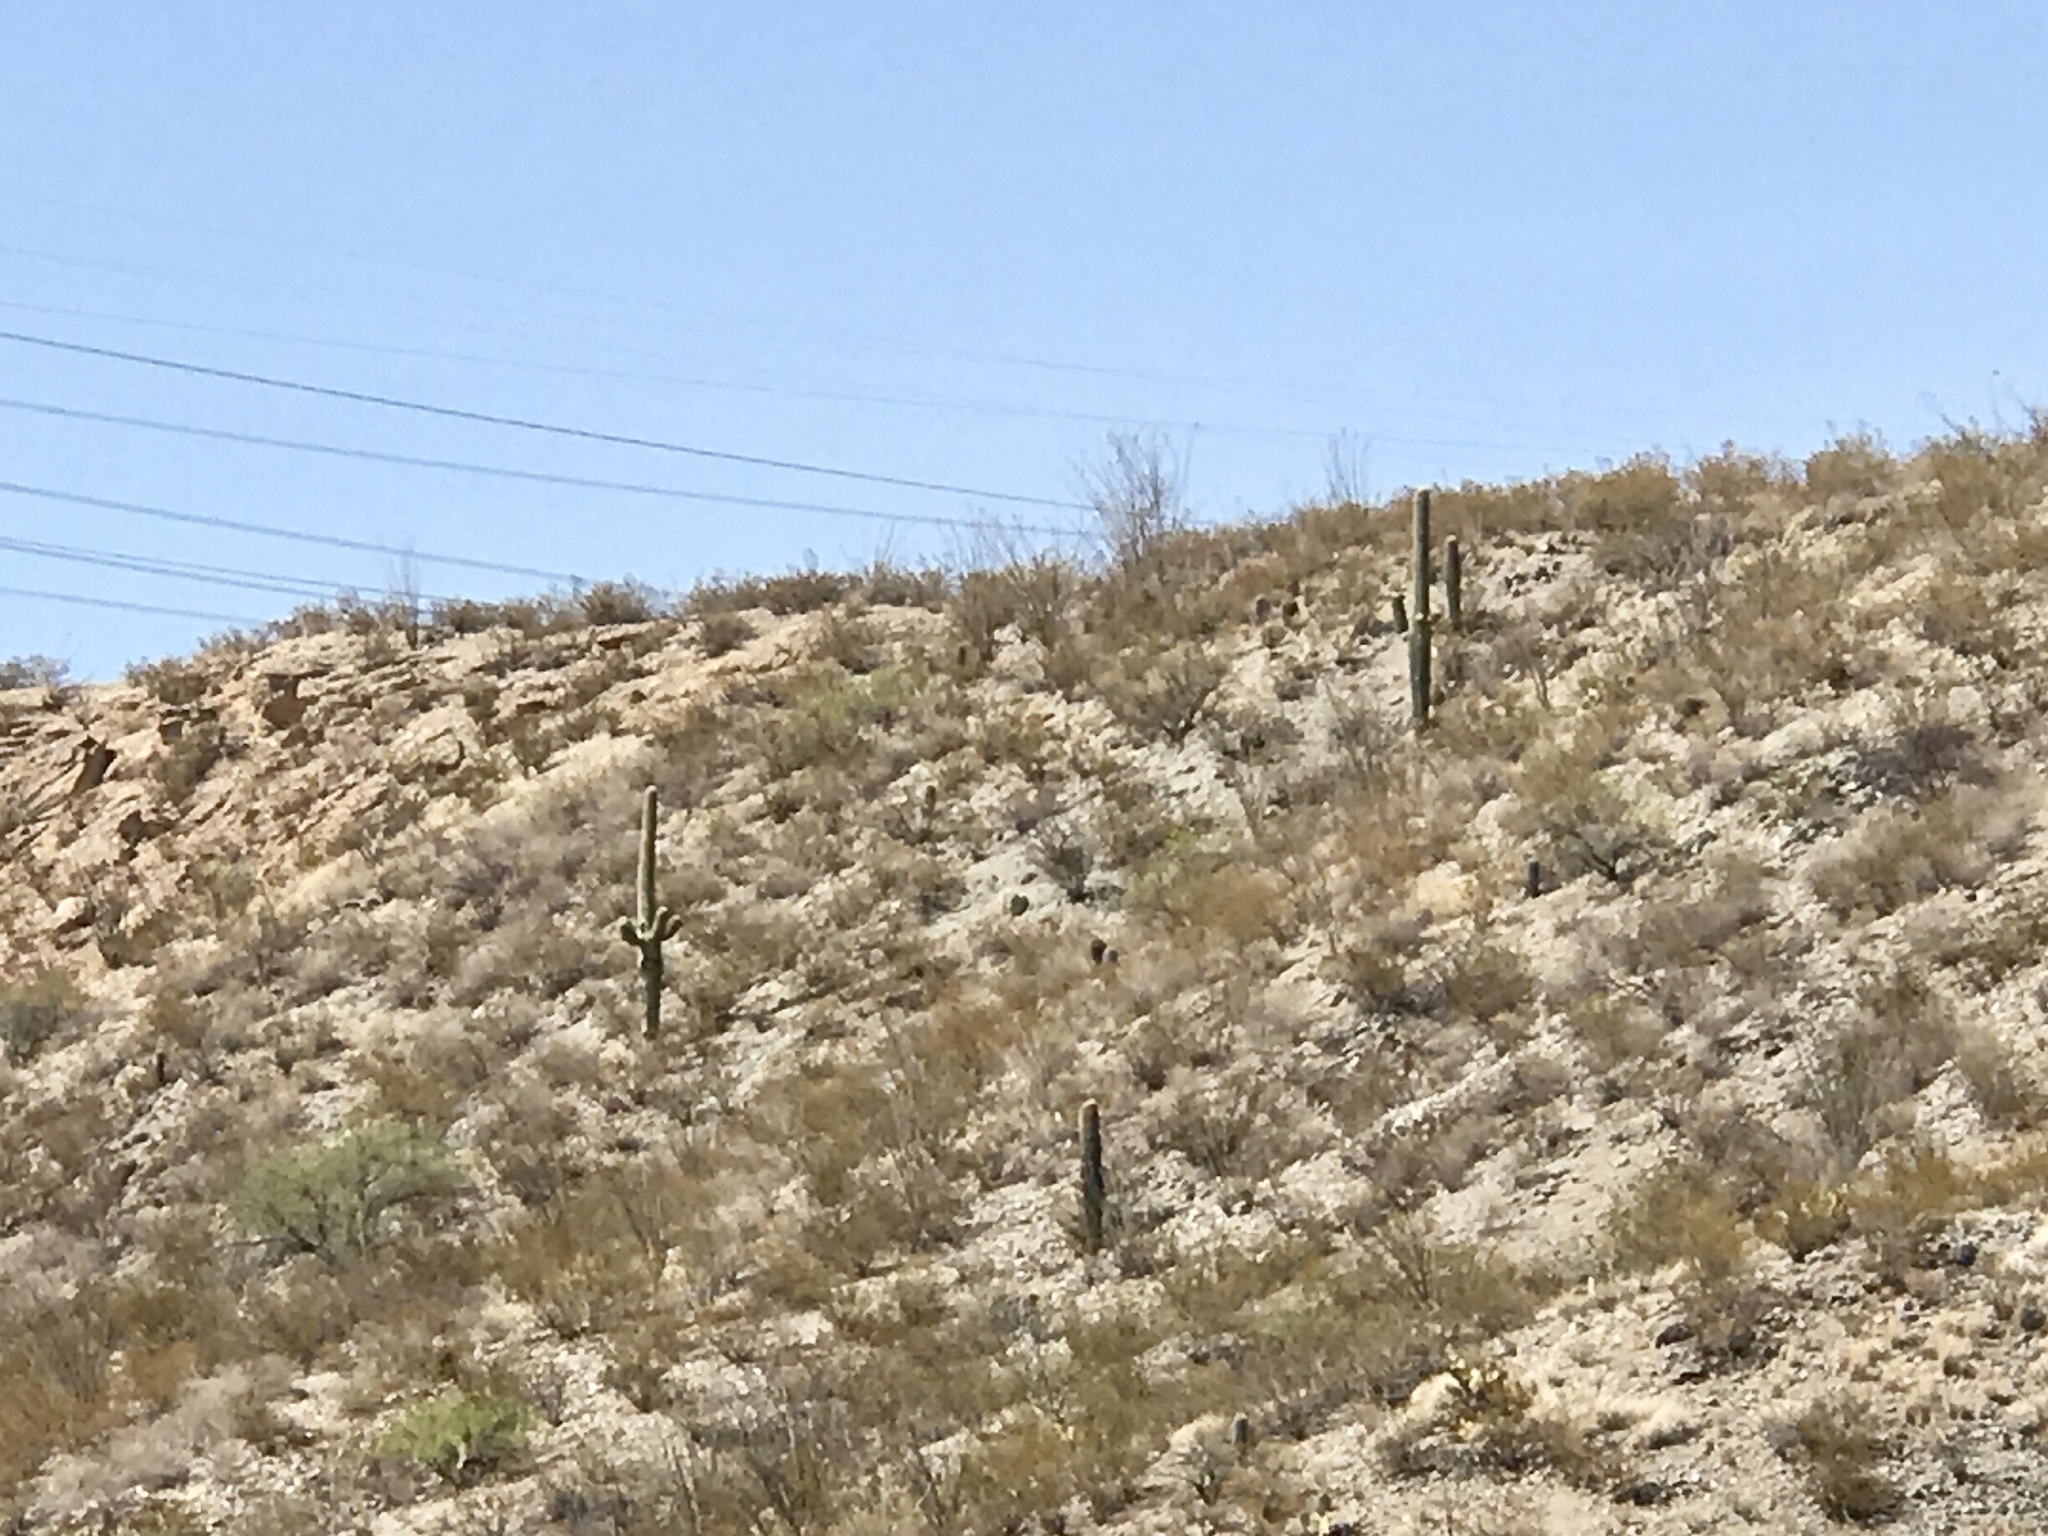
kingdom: Plantae
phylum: Tracheophyta
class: Magnoliopsida
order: Caryophyllales
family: Cactaceae
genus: Carnegiea
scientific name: Carnegiea gigantea
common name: Saguaro
